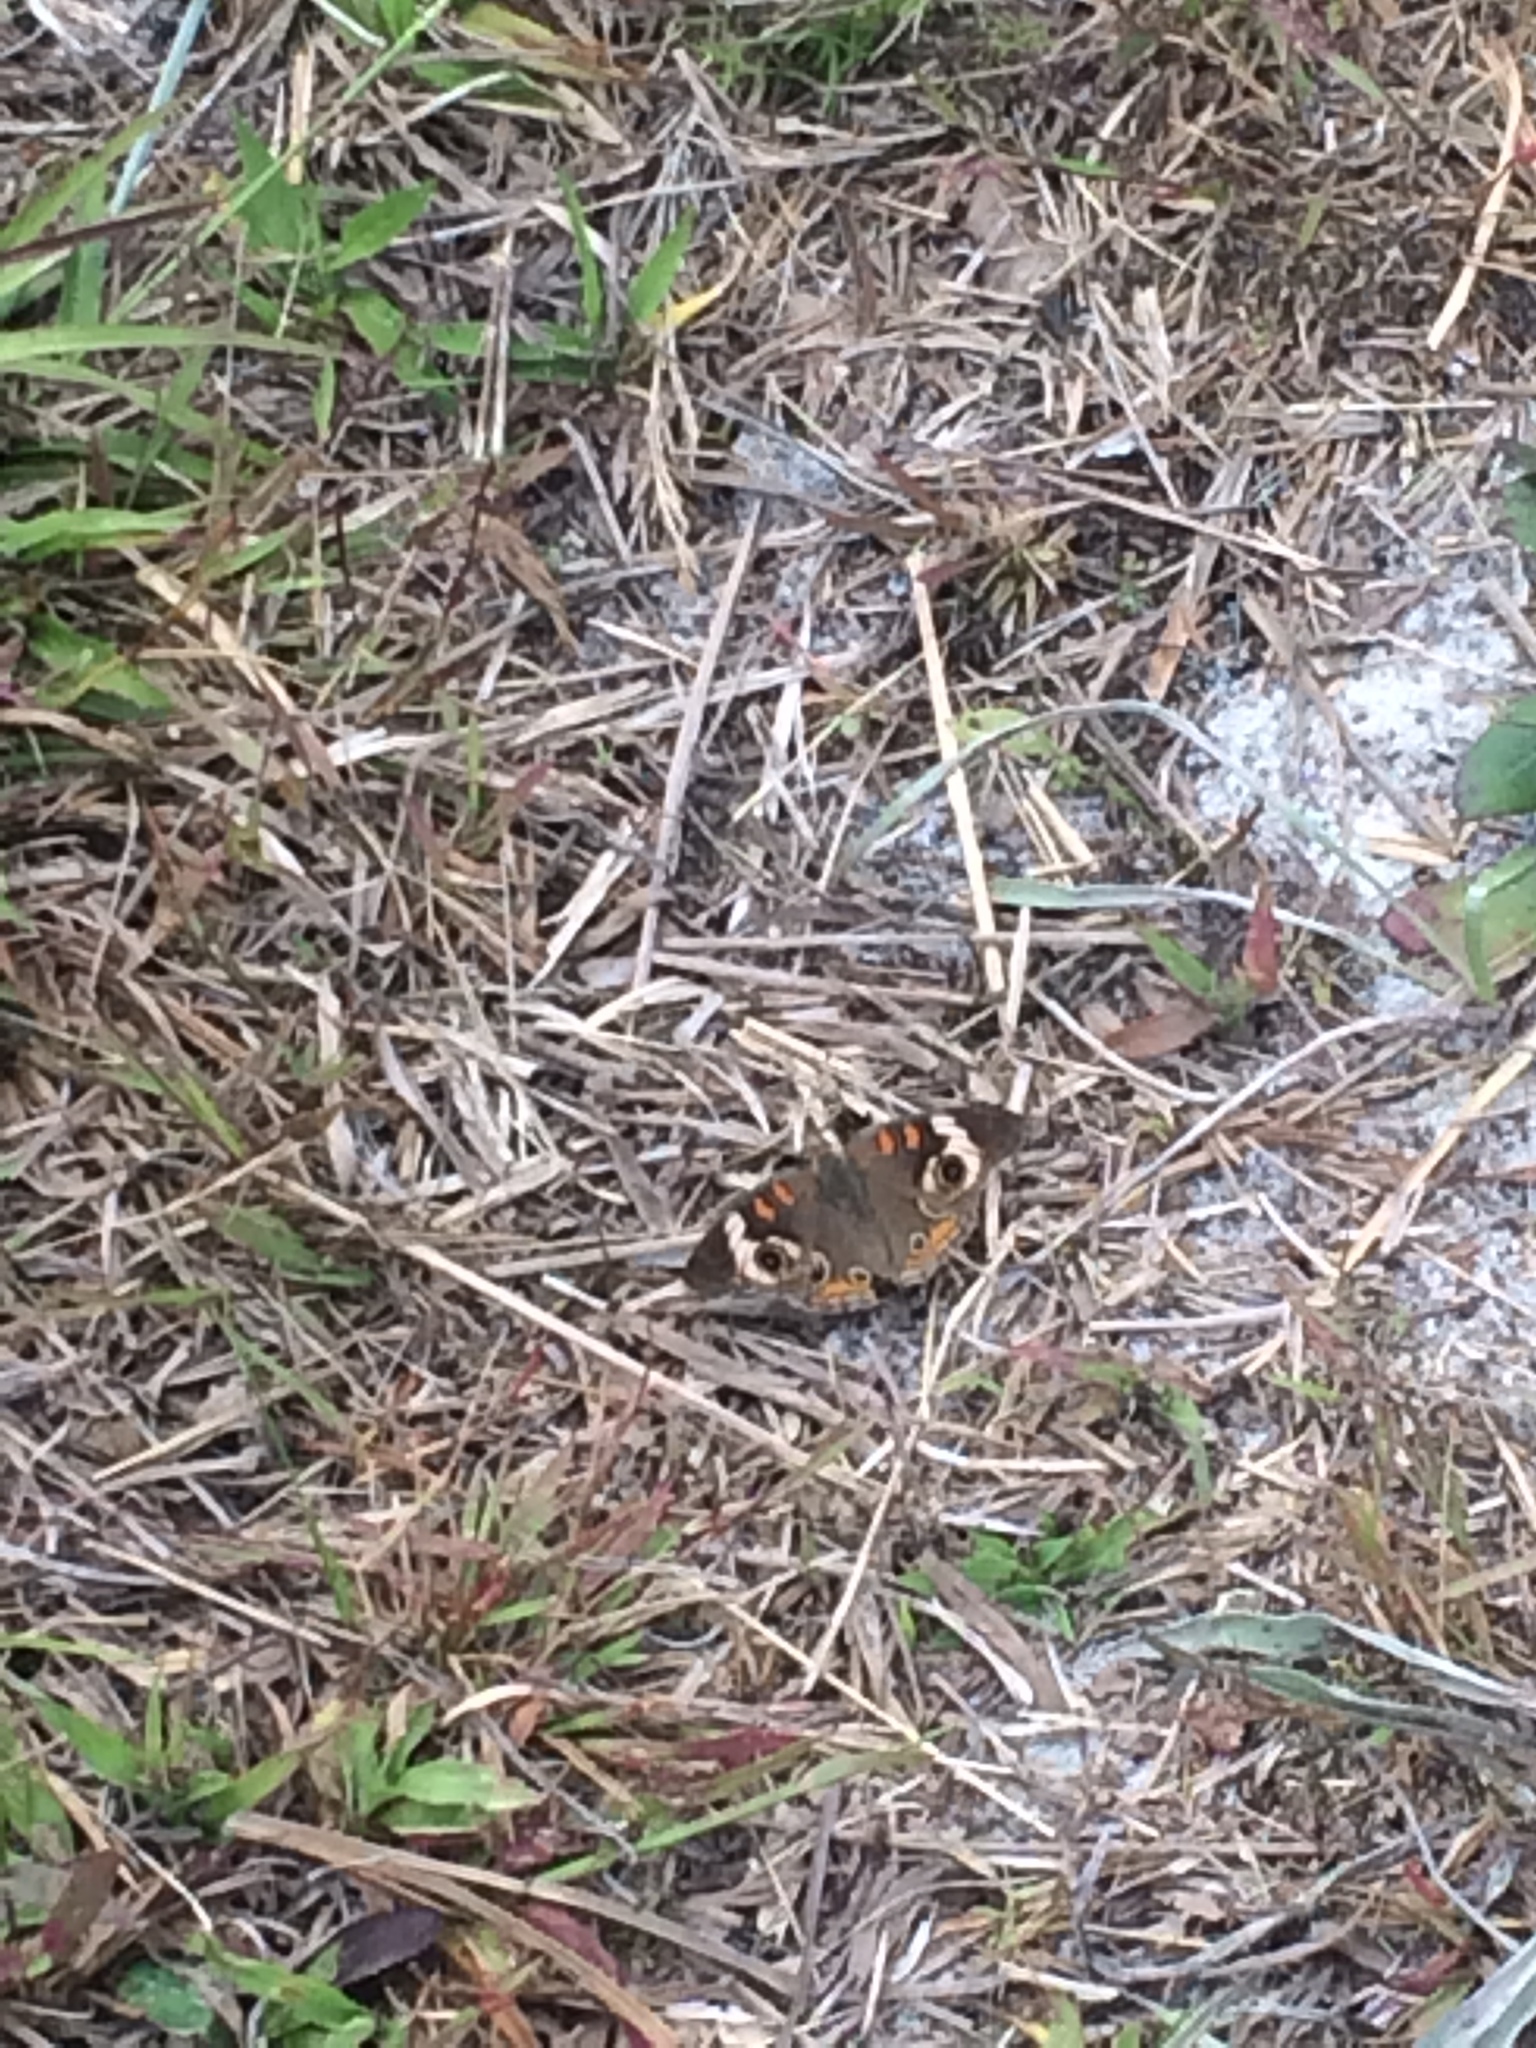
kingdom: Animalia
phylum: Arthropoda
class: Insecta
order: Lepidoptera
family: Nymphalidae
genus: Junonia
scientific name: Junonia coenia
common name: Common buckeye
